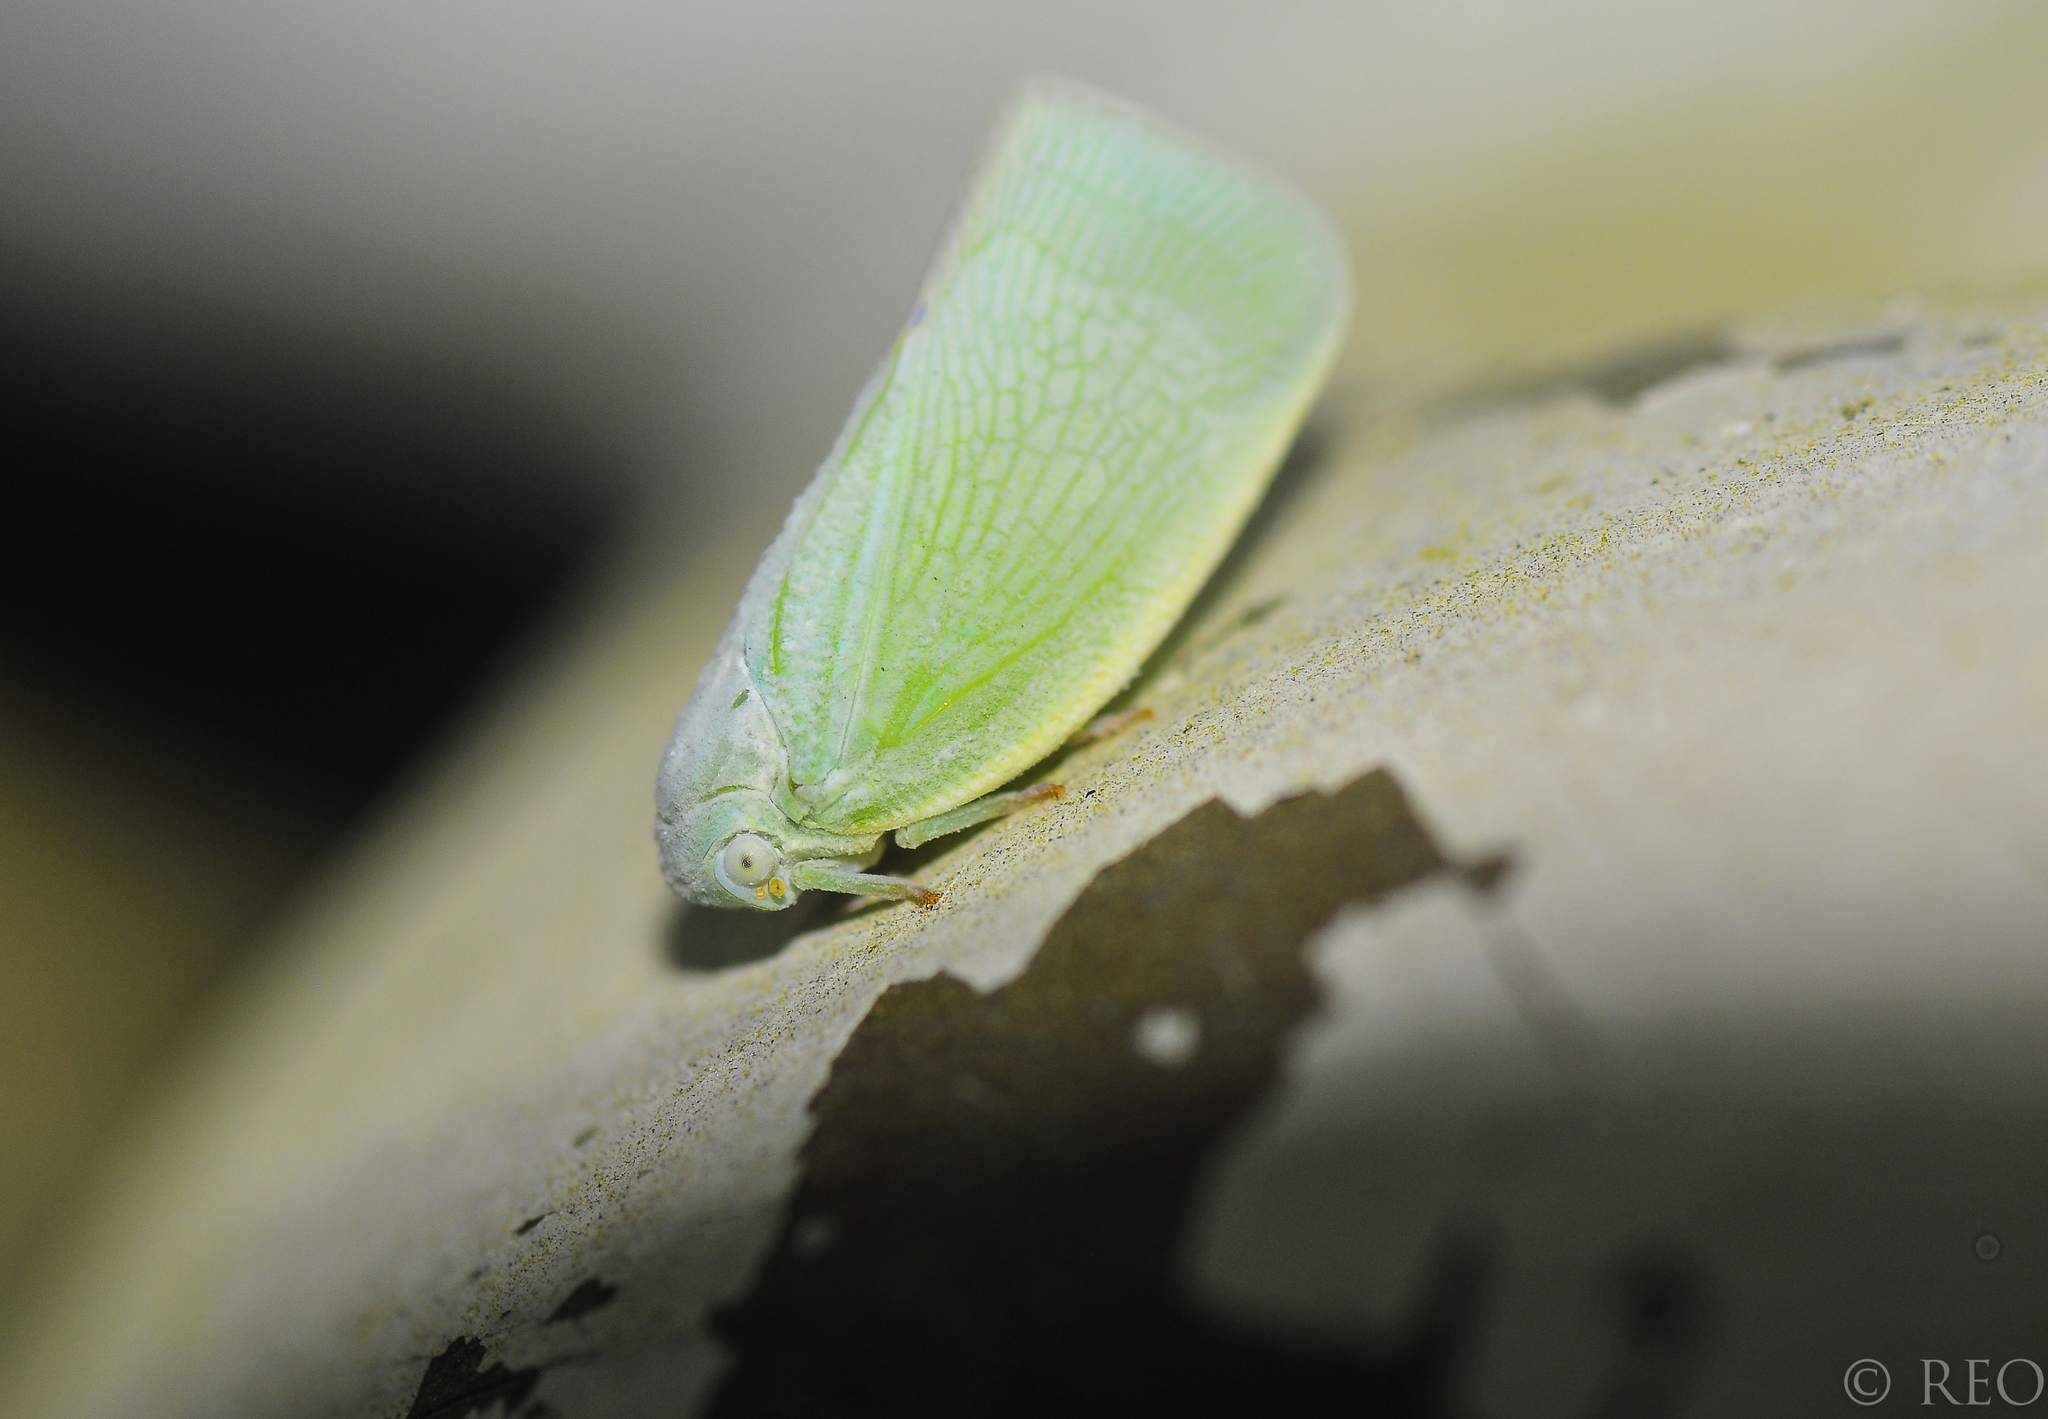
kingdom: Animalia
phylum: Arthropoda
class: Insecta
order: Hemiptera
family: Flatidae
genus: Flatormenis
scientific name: Flatormenis proxima
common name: Northern flatid planthopper
